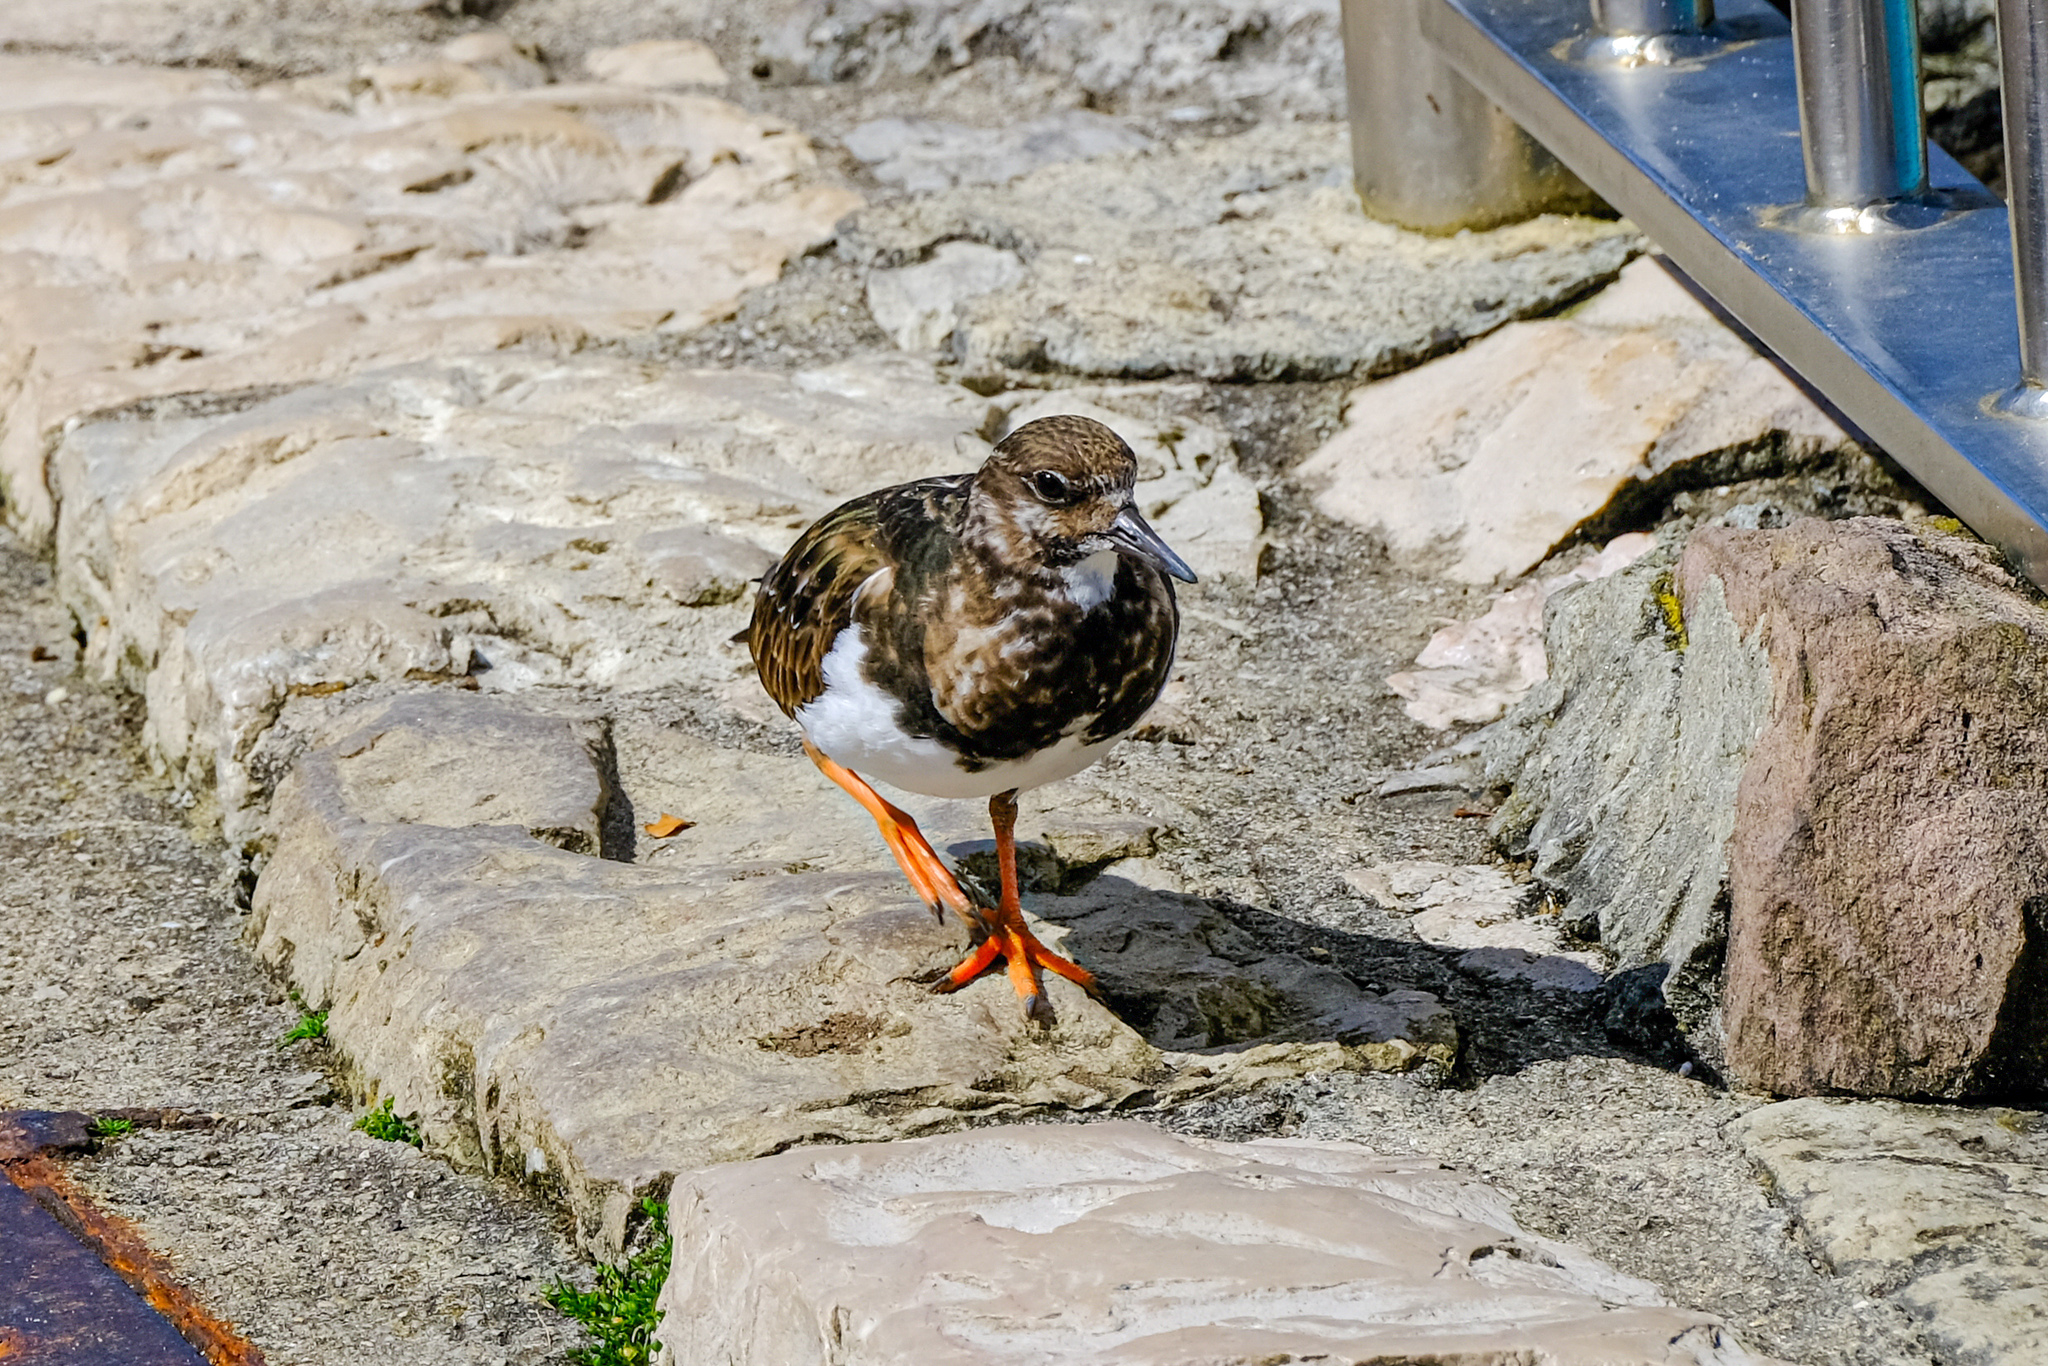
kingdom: Animalia
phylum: Chordata
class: Aves
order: Charadriiformes
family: Scolopacidae
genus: Arenaria
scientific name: Arenaria interpres
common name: Ruddy turnstone
